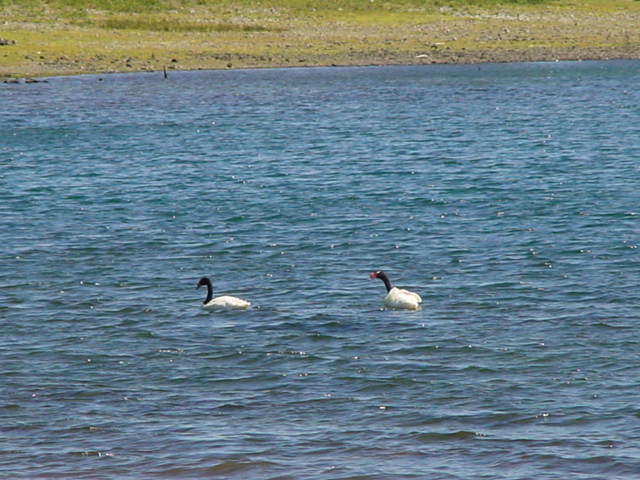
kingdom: Animalia
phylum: Chordata
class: Aves
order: Anseriformes
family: Anatidae
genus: Cygnus
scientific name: Cygnus melancoryphus
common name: Black-necked swan
